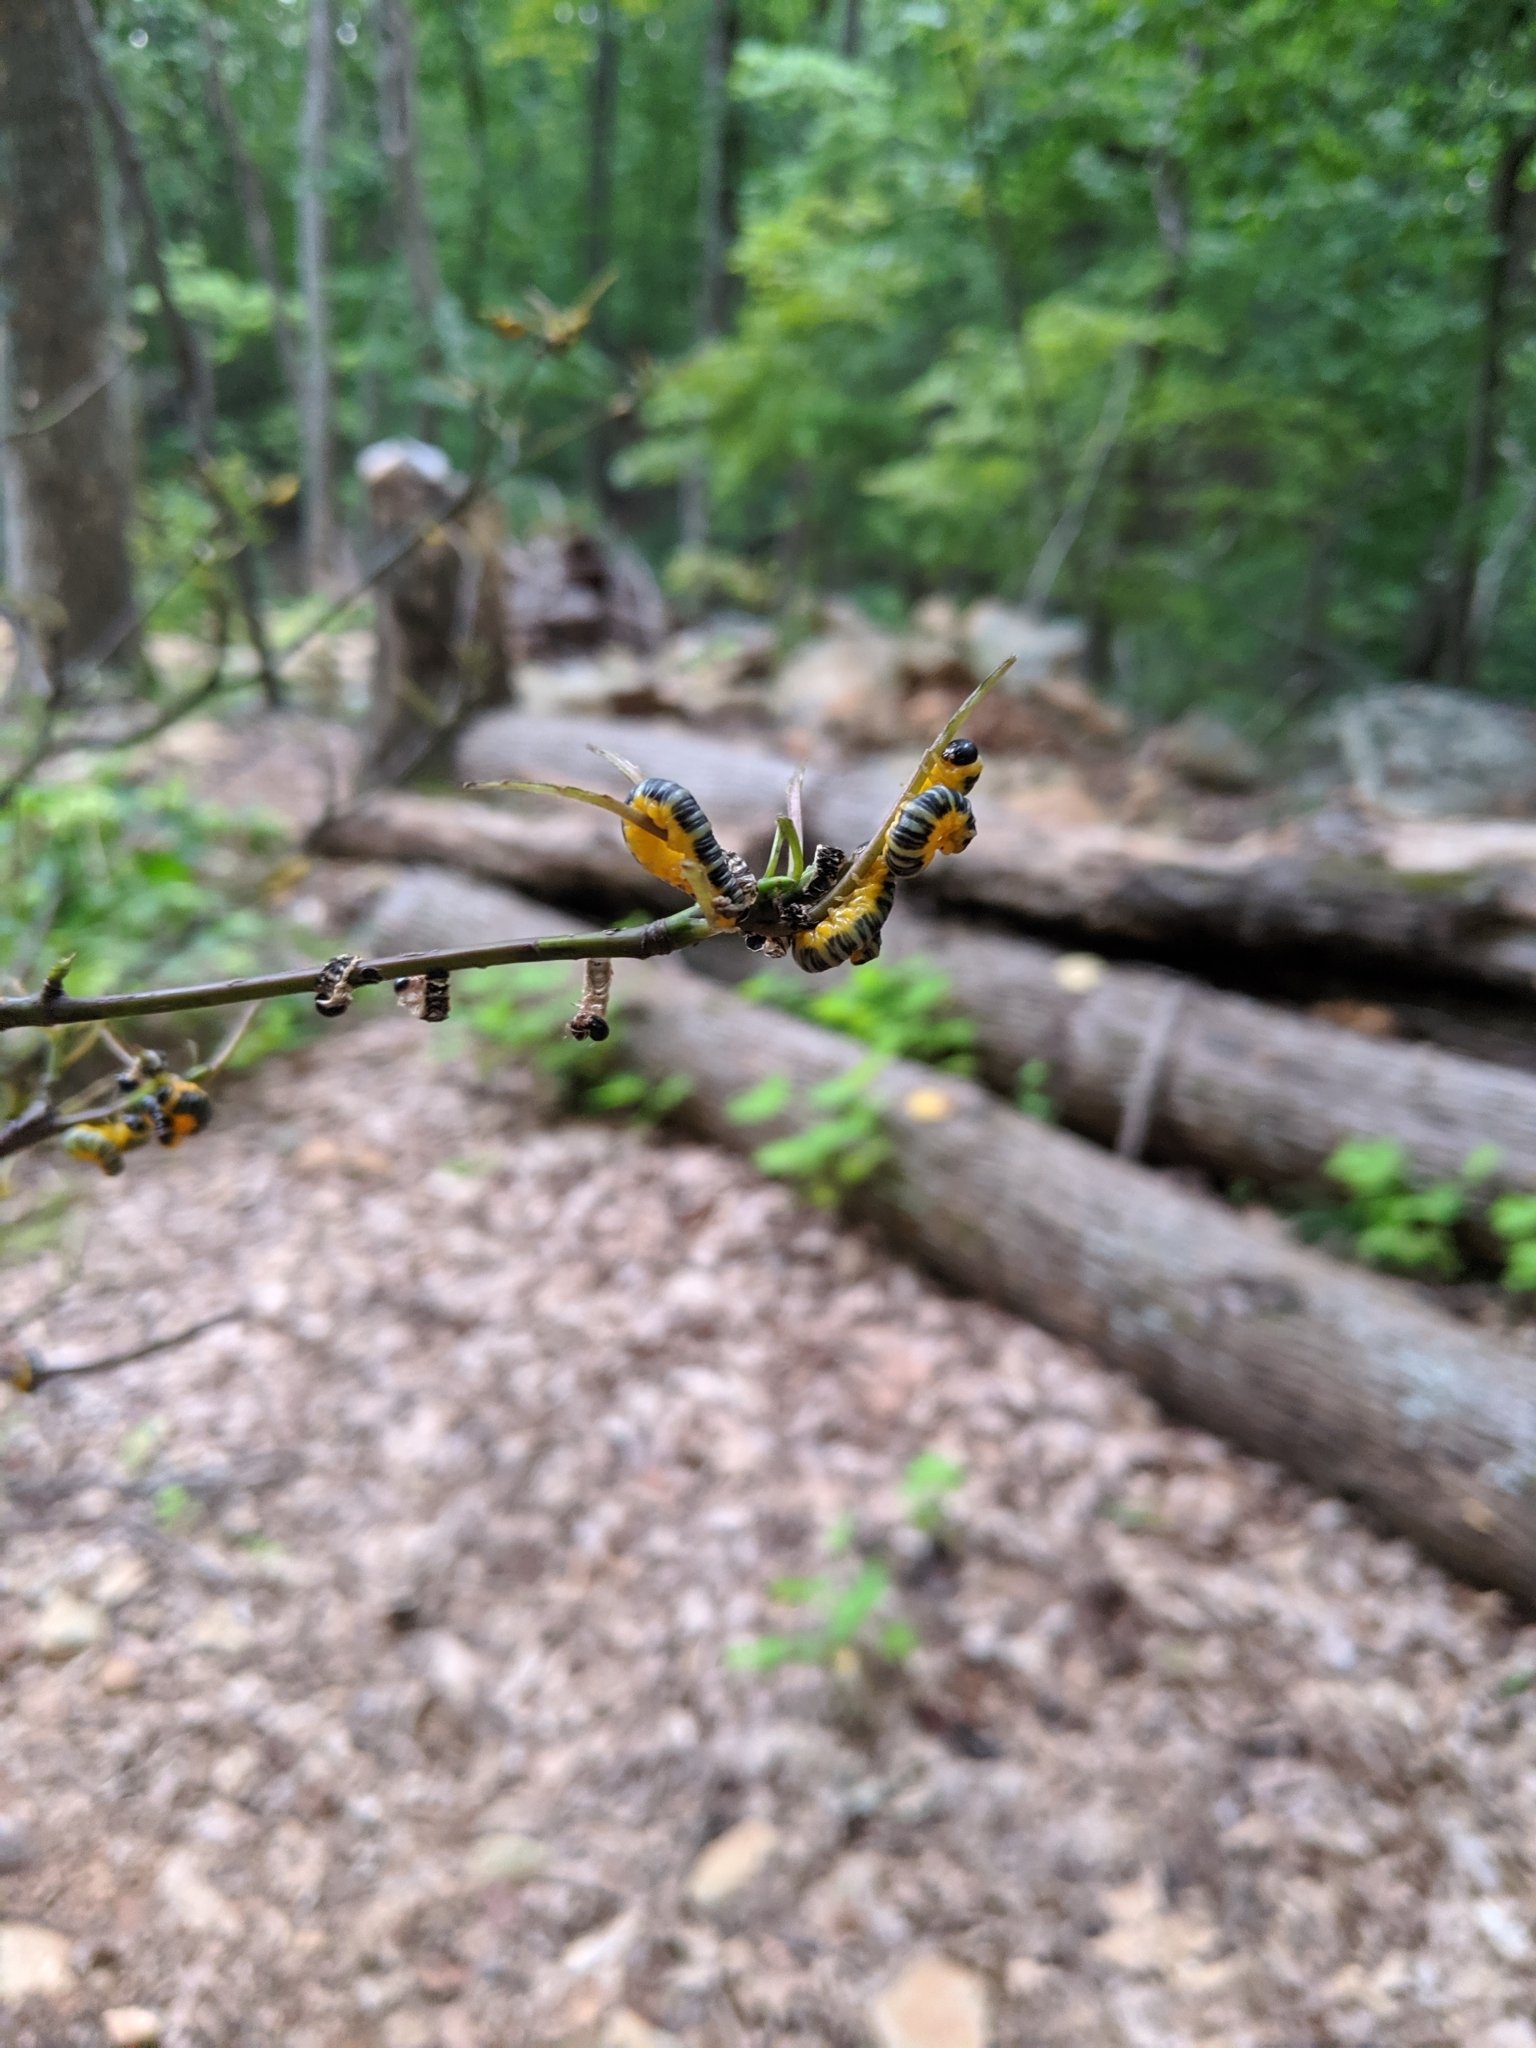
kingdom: Animalia
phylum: Arthropoda
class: Insecta
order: Hymenoptera
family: Tenthredinidae
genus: Macremphytus
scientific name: Macremphytus
